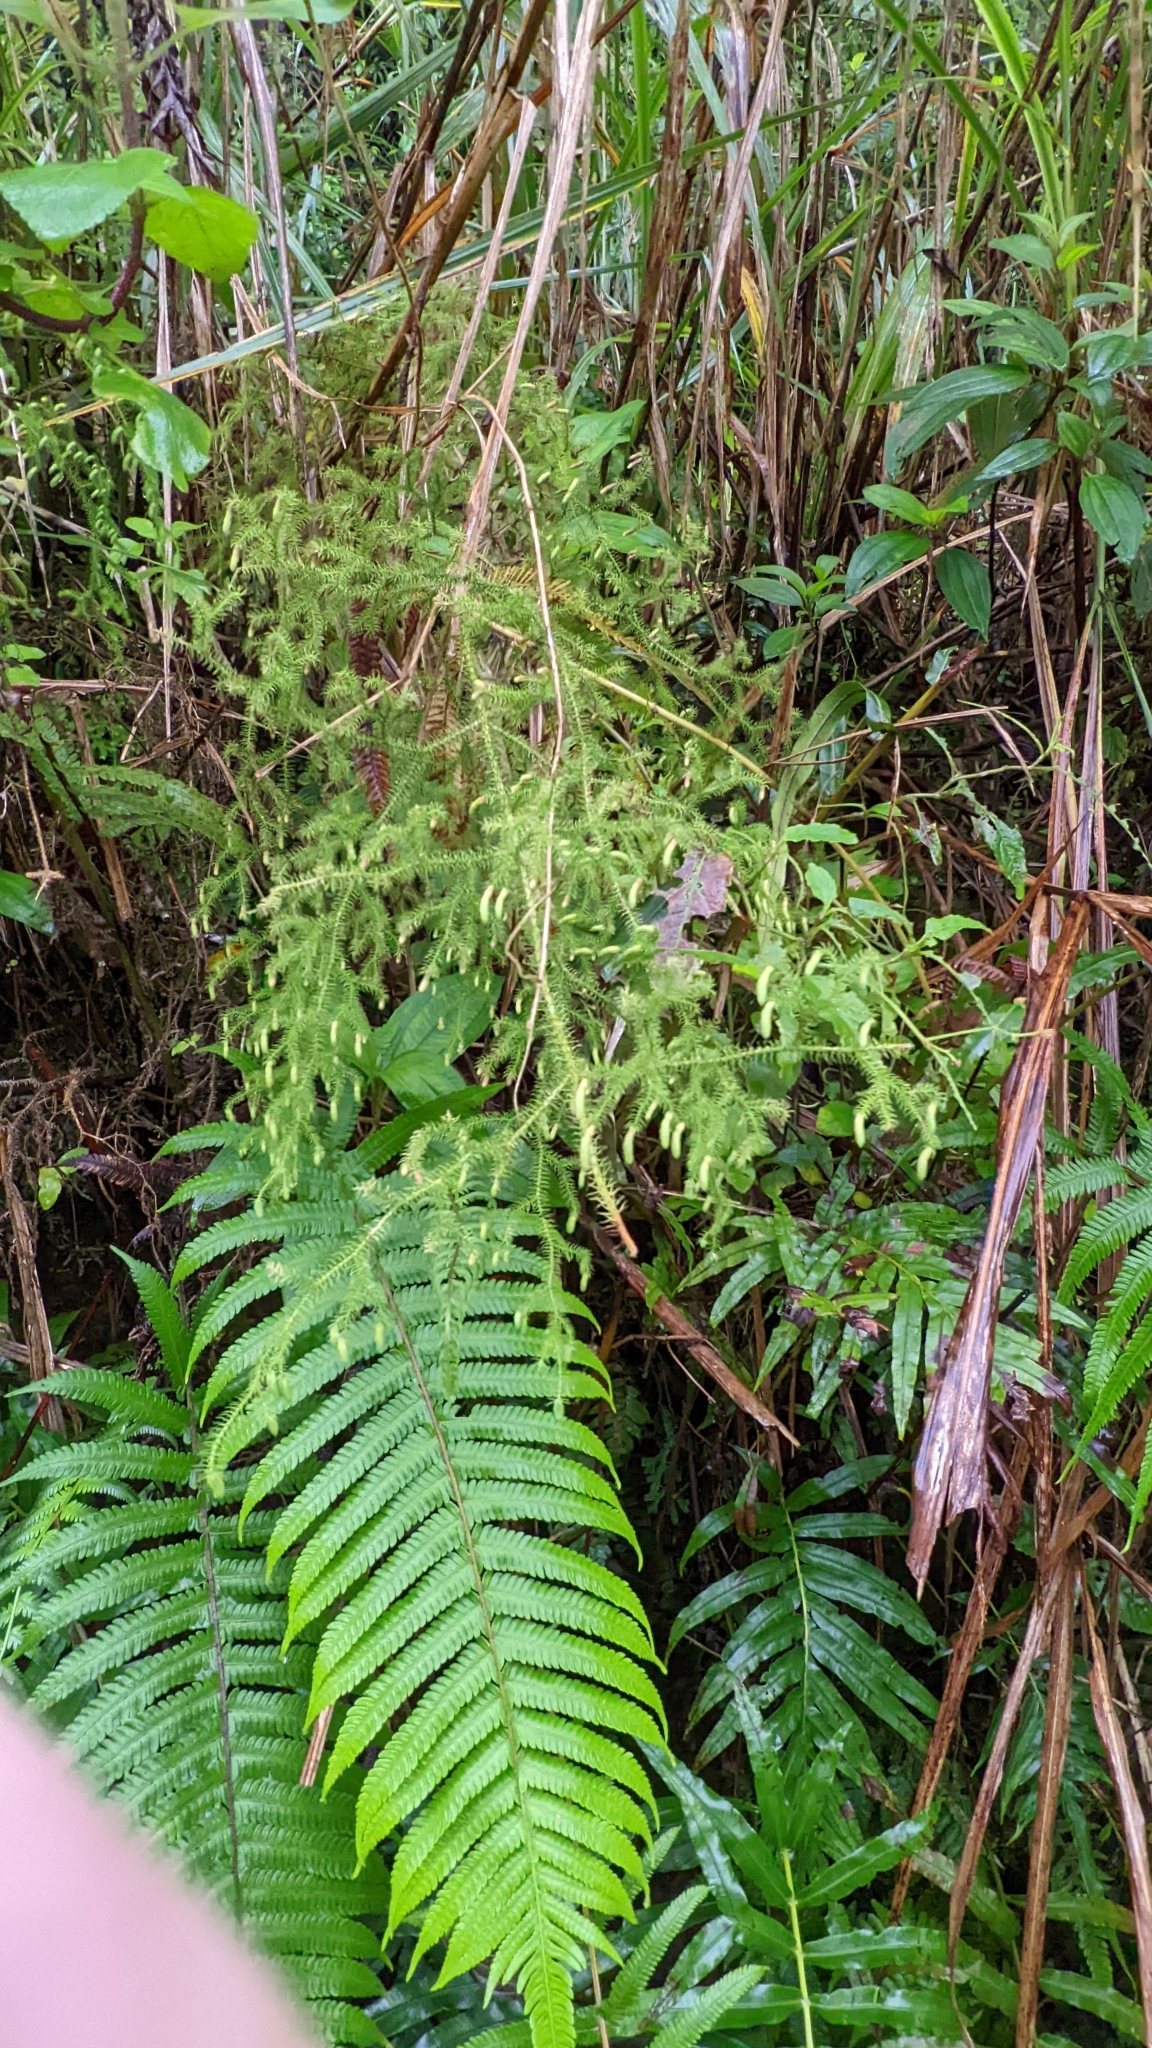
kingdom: Plantae
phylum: Tracheophyta
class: Lycopodiopsida
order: Lycopodiales
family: Lycopodiaceae
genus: Palhinhaea
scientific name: Palhinhaea cernua
